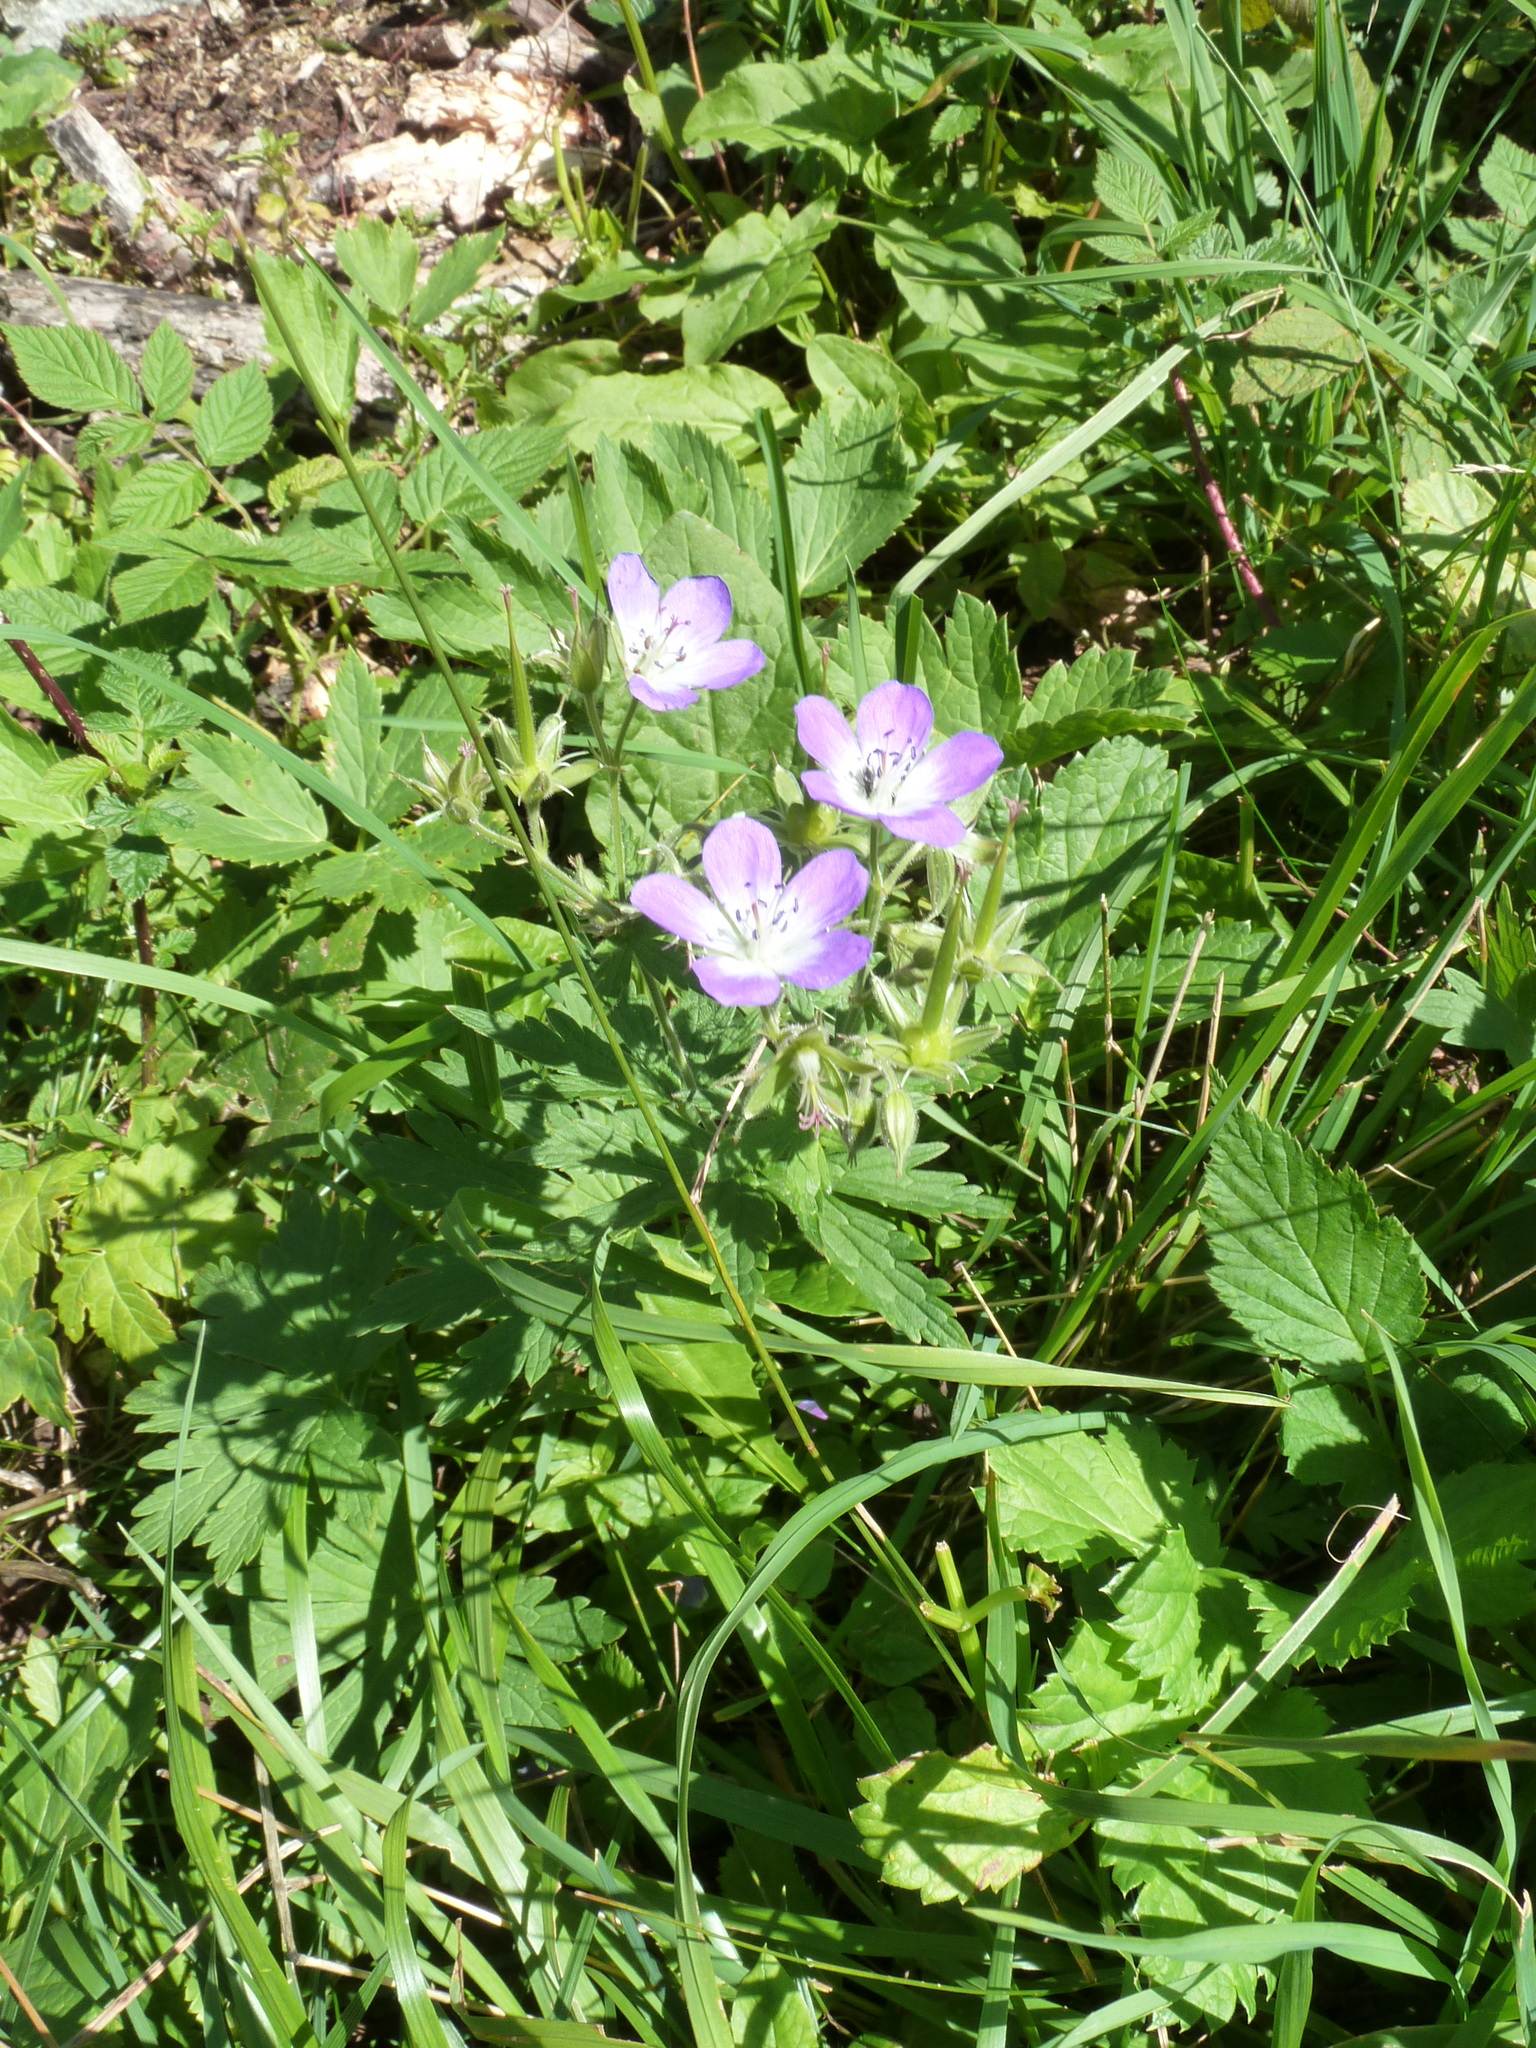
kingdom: Plantae
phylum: Tracheophyta
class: Magnoliopsida
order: Geraniales
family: Geraniaceae
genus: Geranium
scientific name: Geranium sylvaticum
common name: Wood crane's-bill
